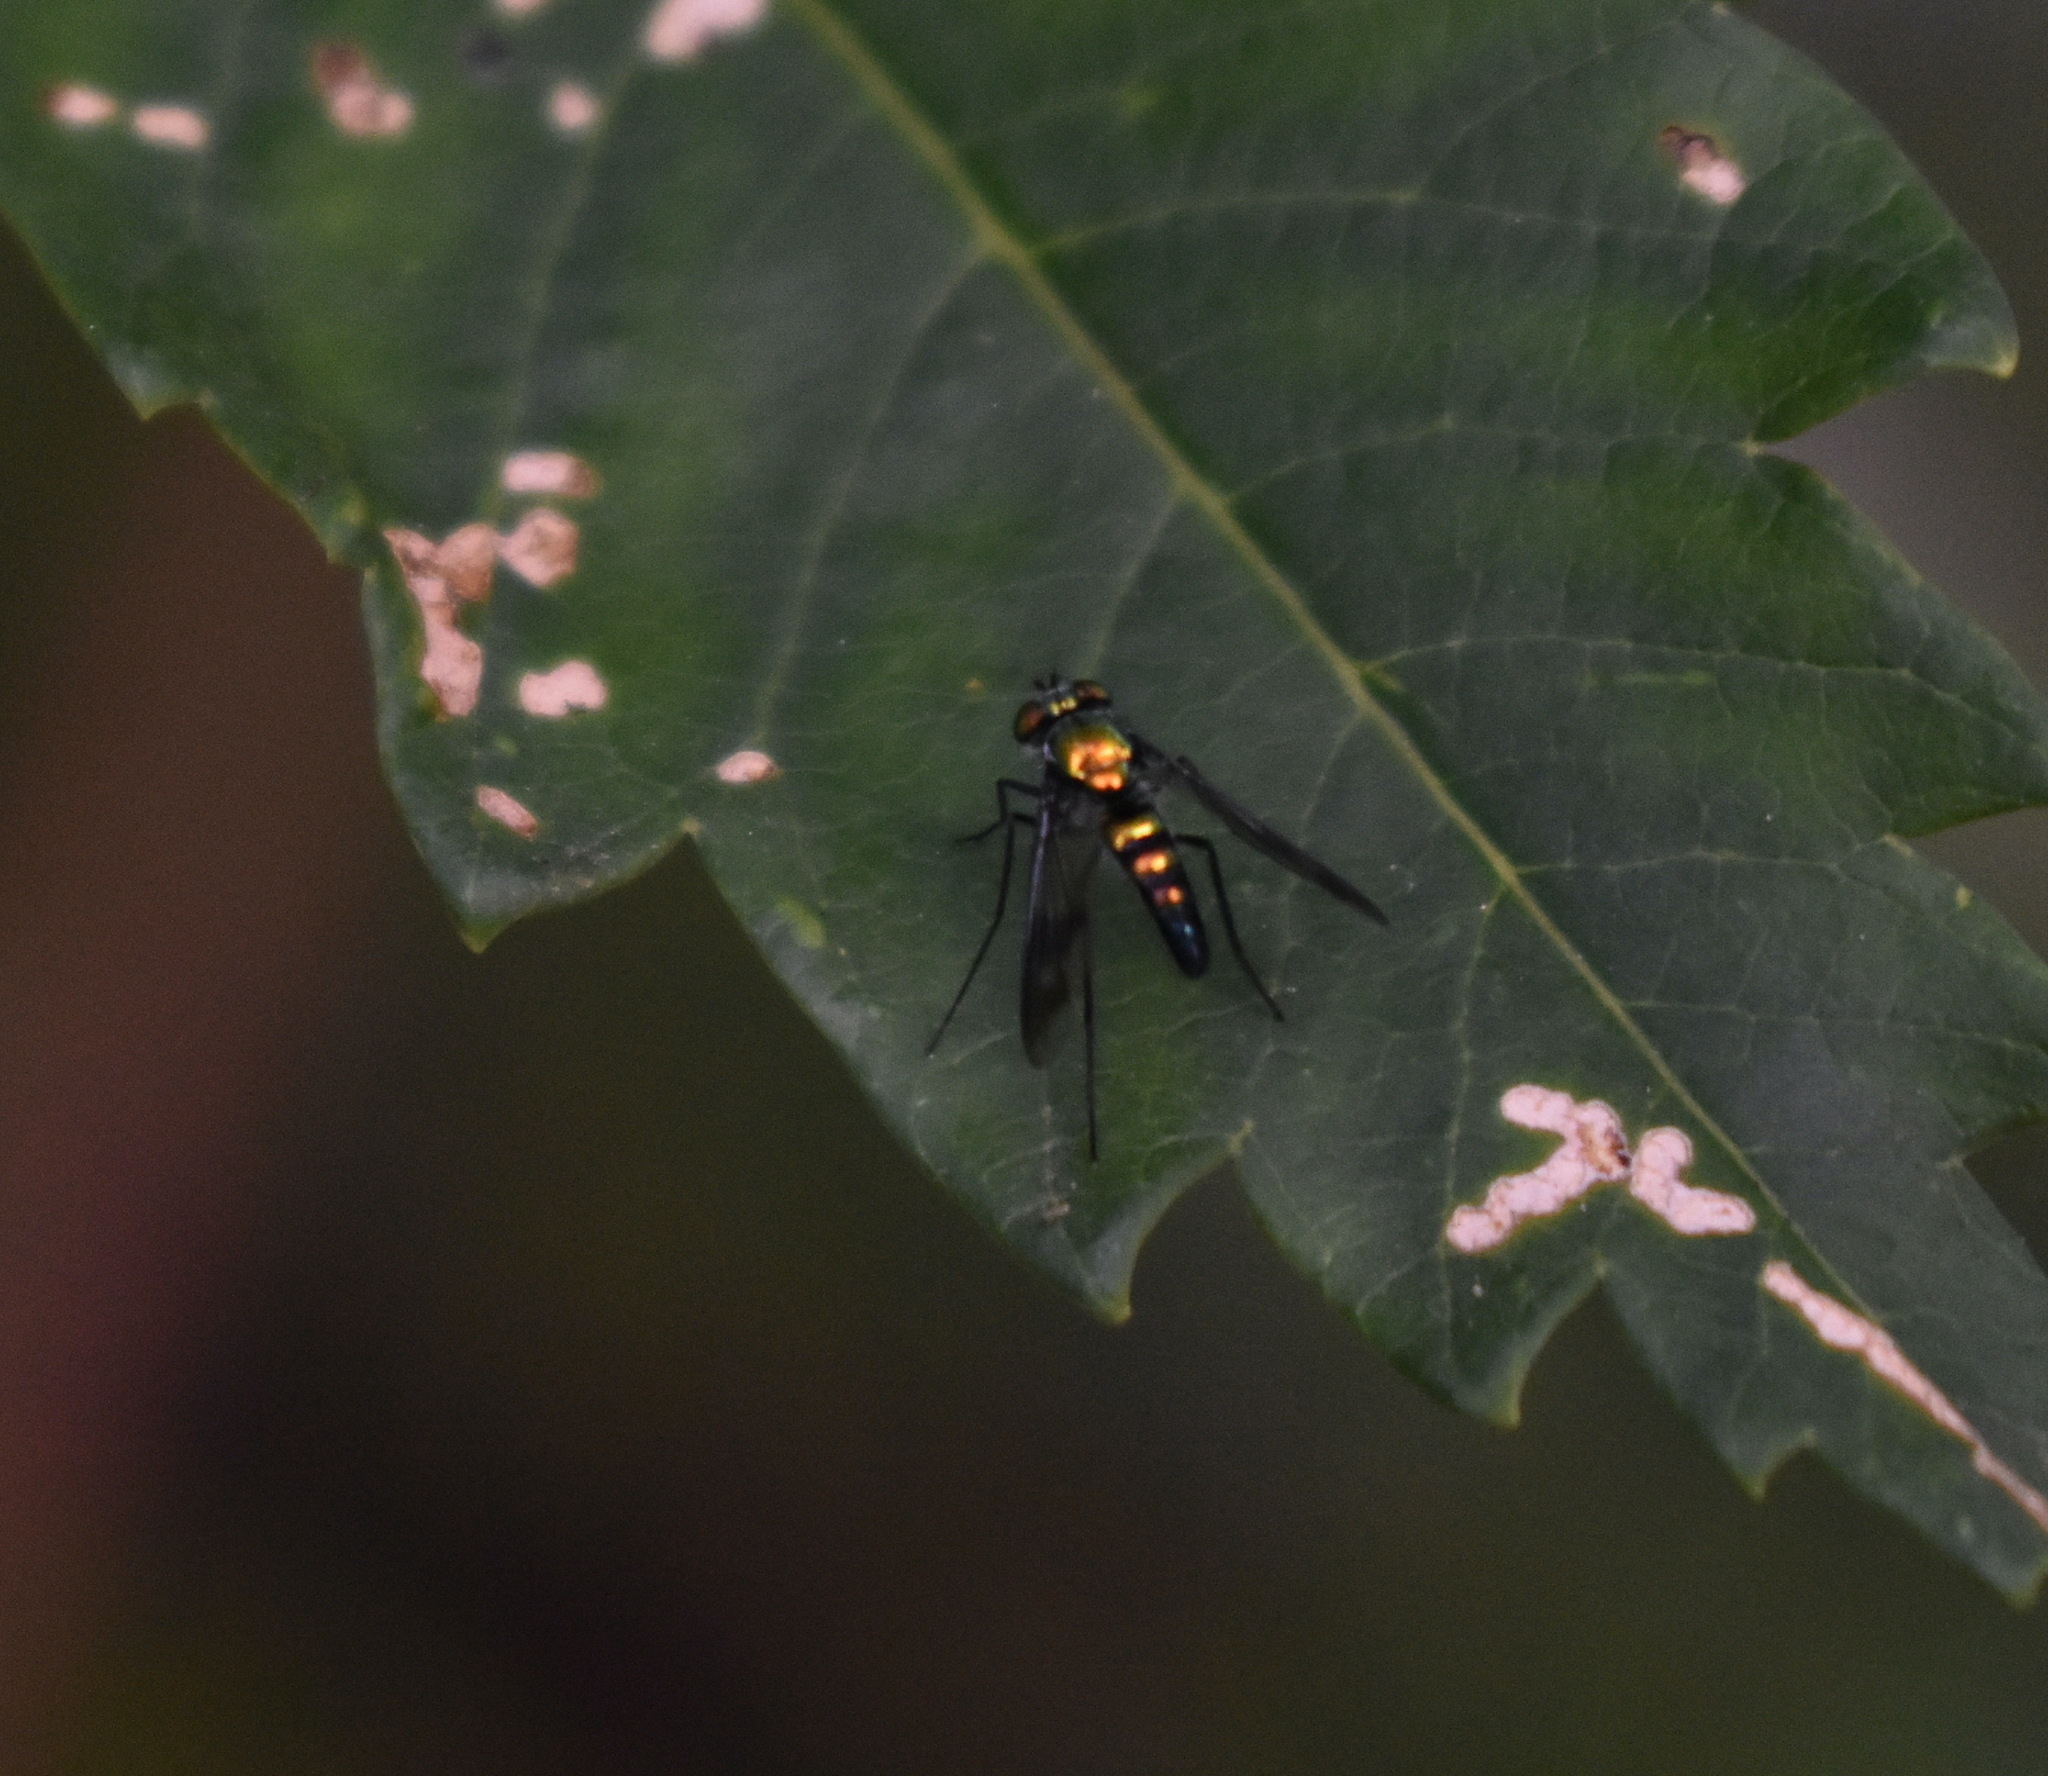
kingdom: Animalia
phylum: Arthropoda
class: Insecta
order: Diptera
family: Dolichopodidae
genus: Condylostylus
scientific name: Condylostylus patibulatus
